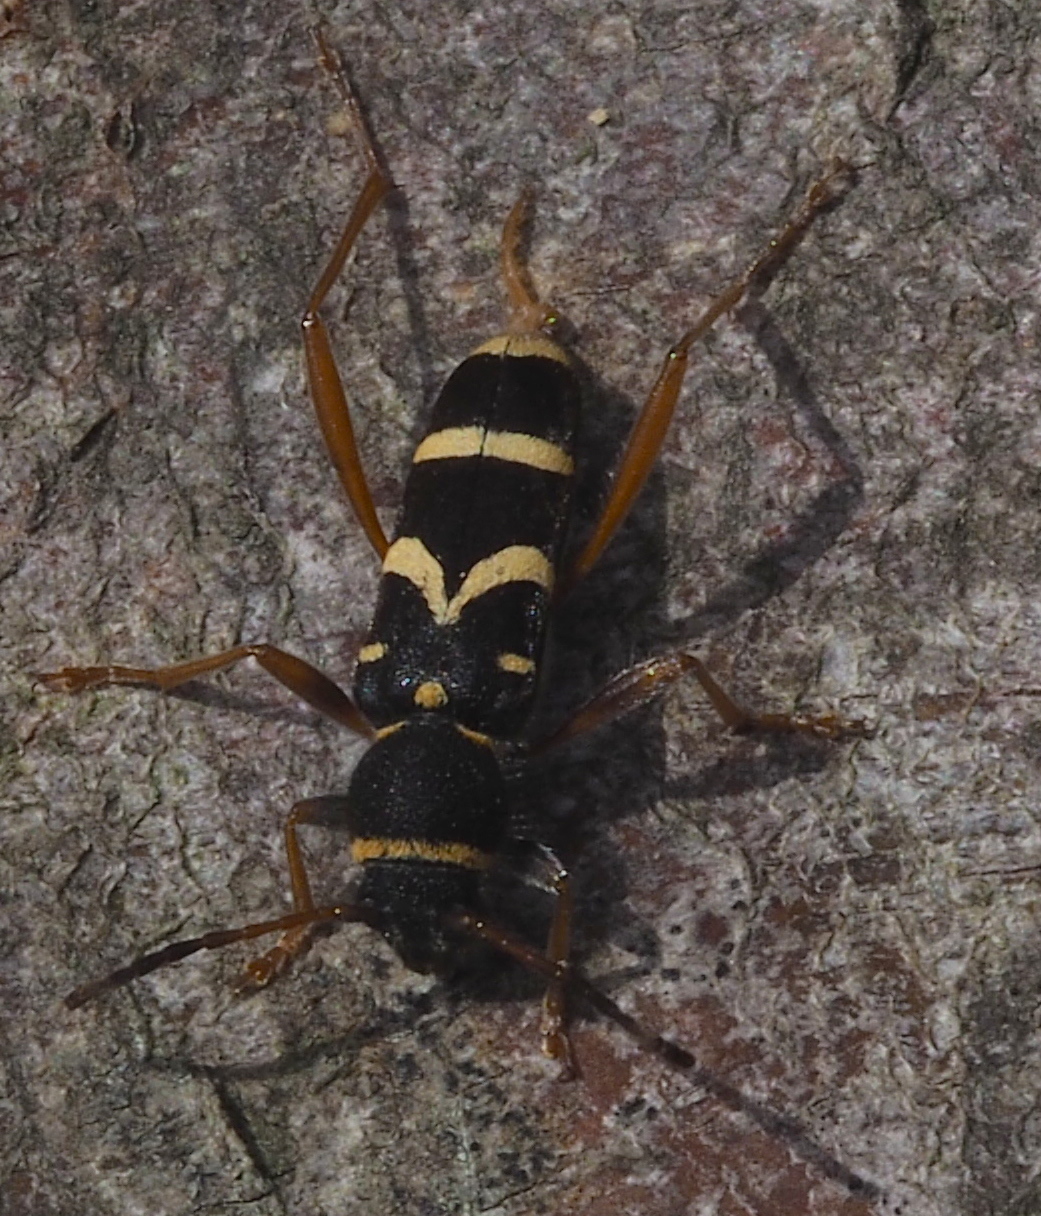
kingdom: Animalia
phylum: Arthropoda
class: Insecta
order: Coleoptera
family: Cerambycidae
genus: Clytus
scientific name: Clytus arietis
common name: Wasp beetle
